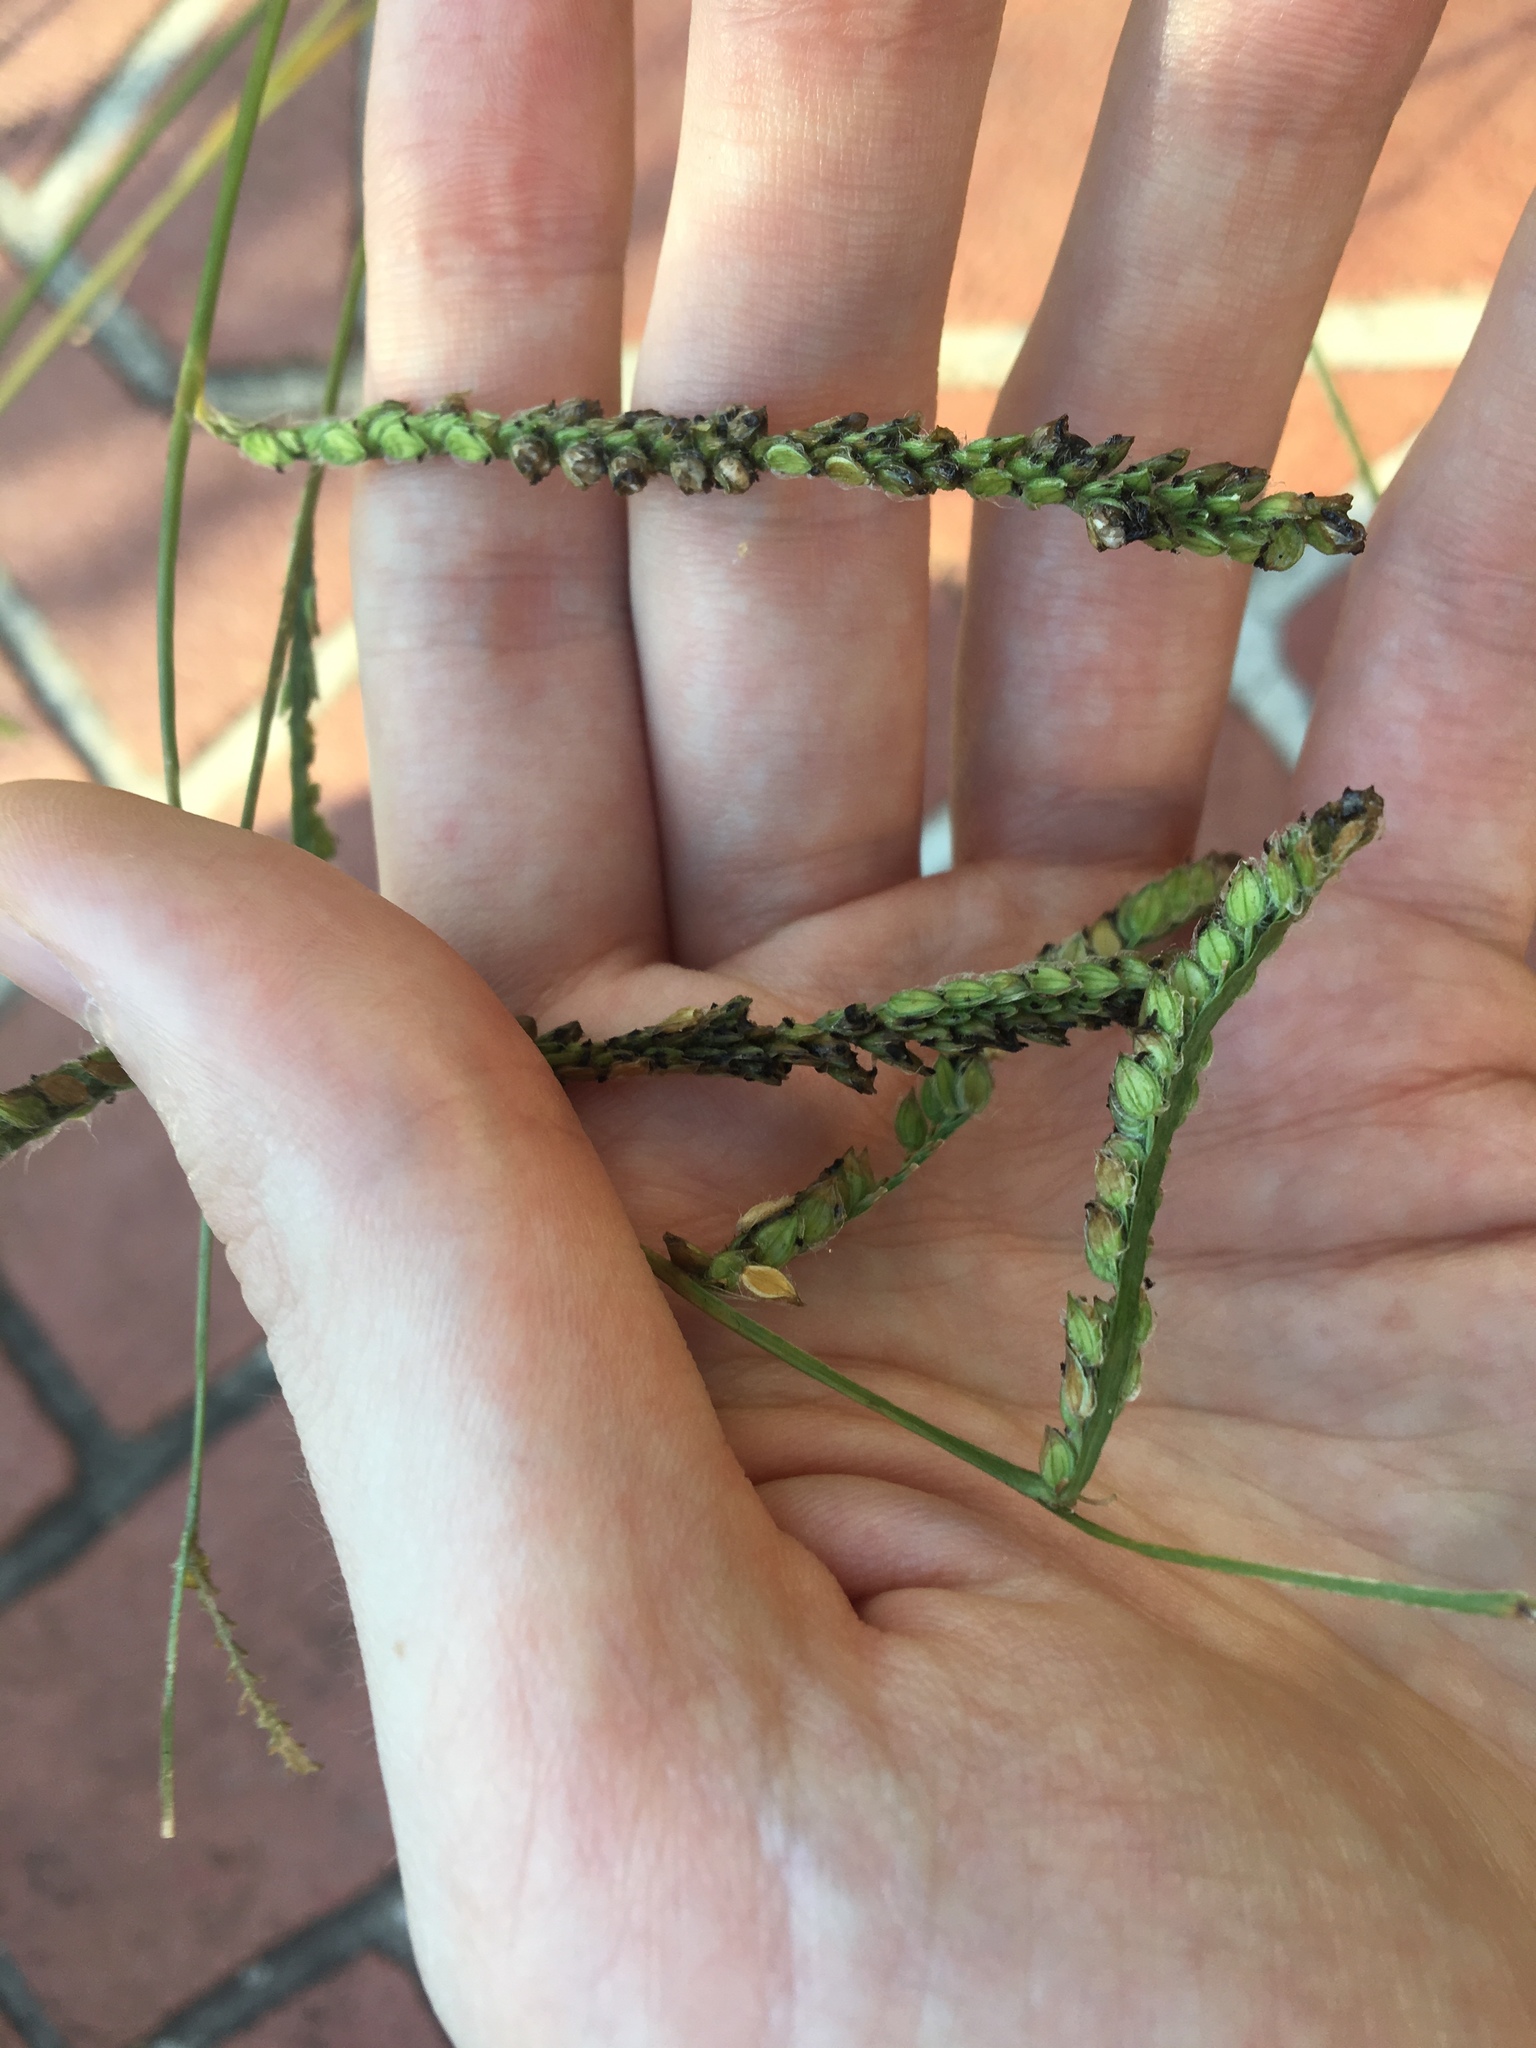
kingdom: Plantae
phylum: Tracheophyta
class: Liliopsida
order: Poales
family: Poaceae
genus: Paspalum
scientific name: Paspalum dilatatum
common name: Dallisgrass
